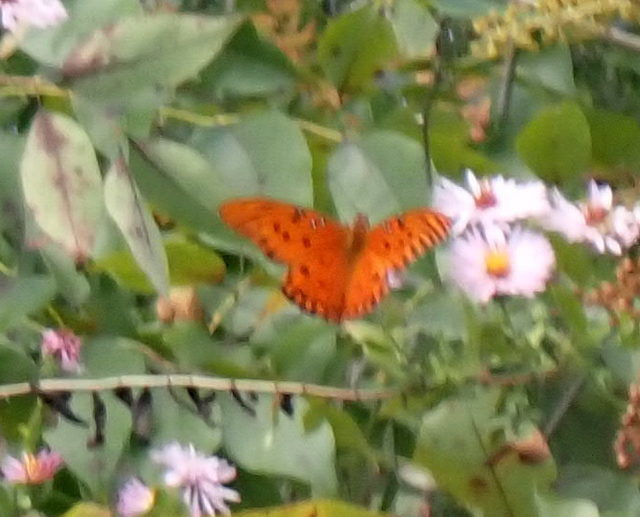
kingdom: Animalia
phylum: Arthropoda
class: Insecta
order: Lepidoptera
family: Nymphalidae
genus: Dione
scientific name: Dione vanillae
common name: Gulf fritillary
